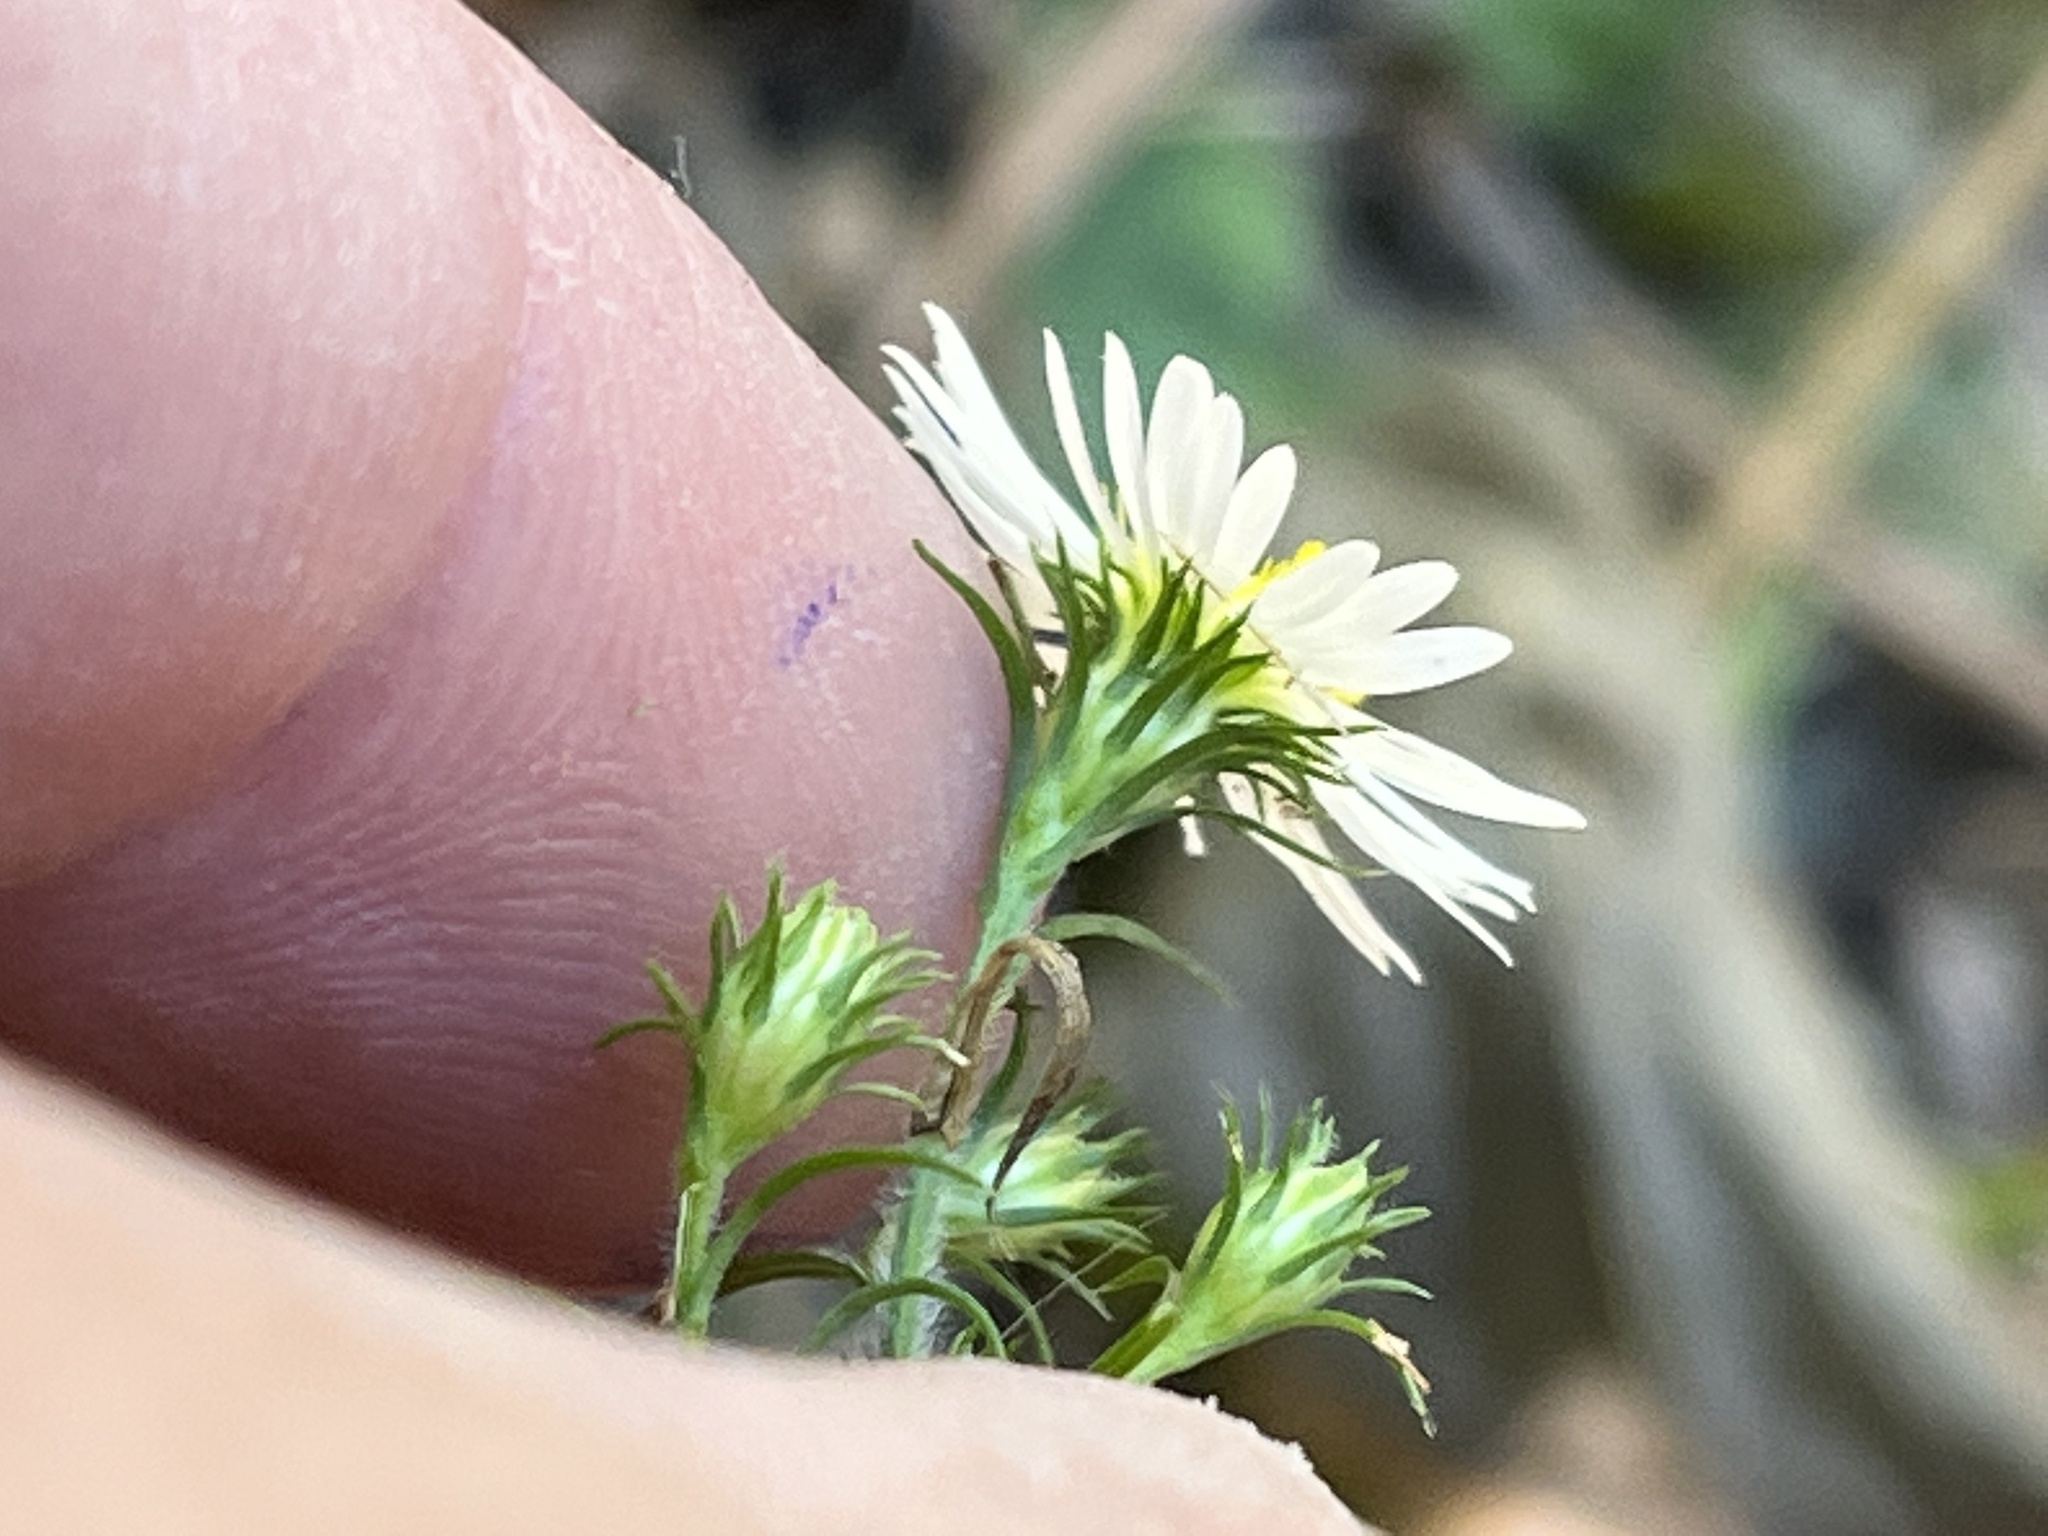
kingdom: Plantae
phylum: Tracheophyta
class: Magnoliopsida
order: Asterales
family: Asteraceae
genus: Symphyotrichum
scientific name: Symphyotrichum pilosum
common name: Awl aster
